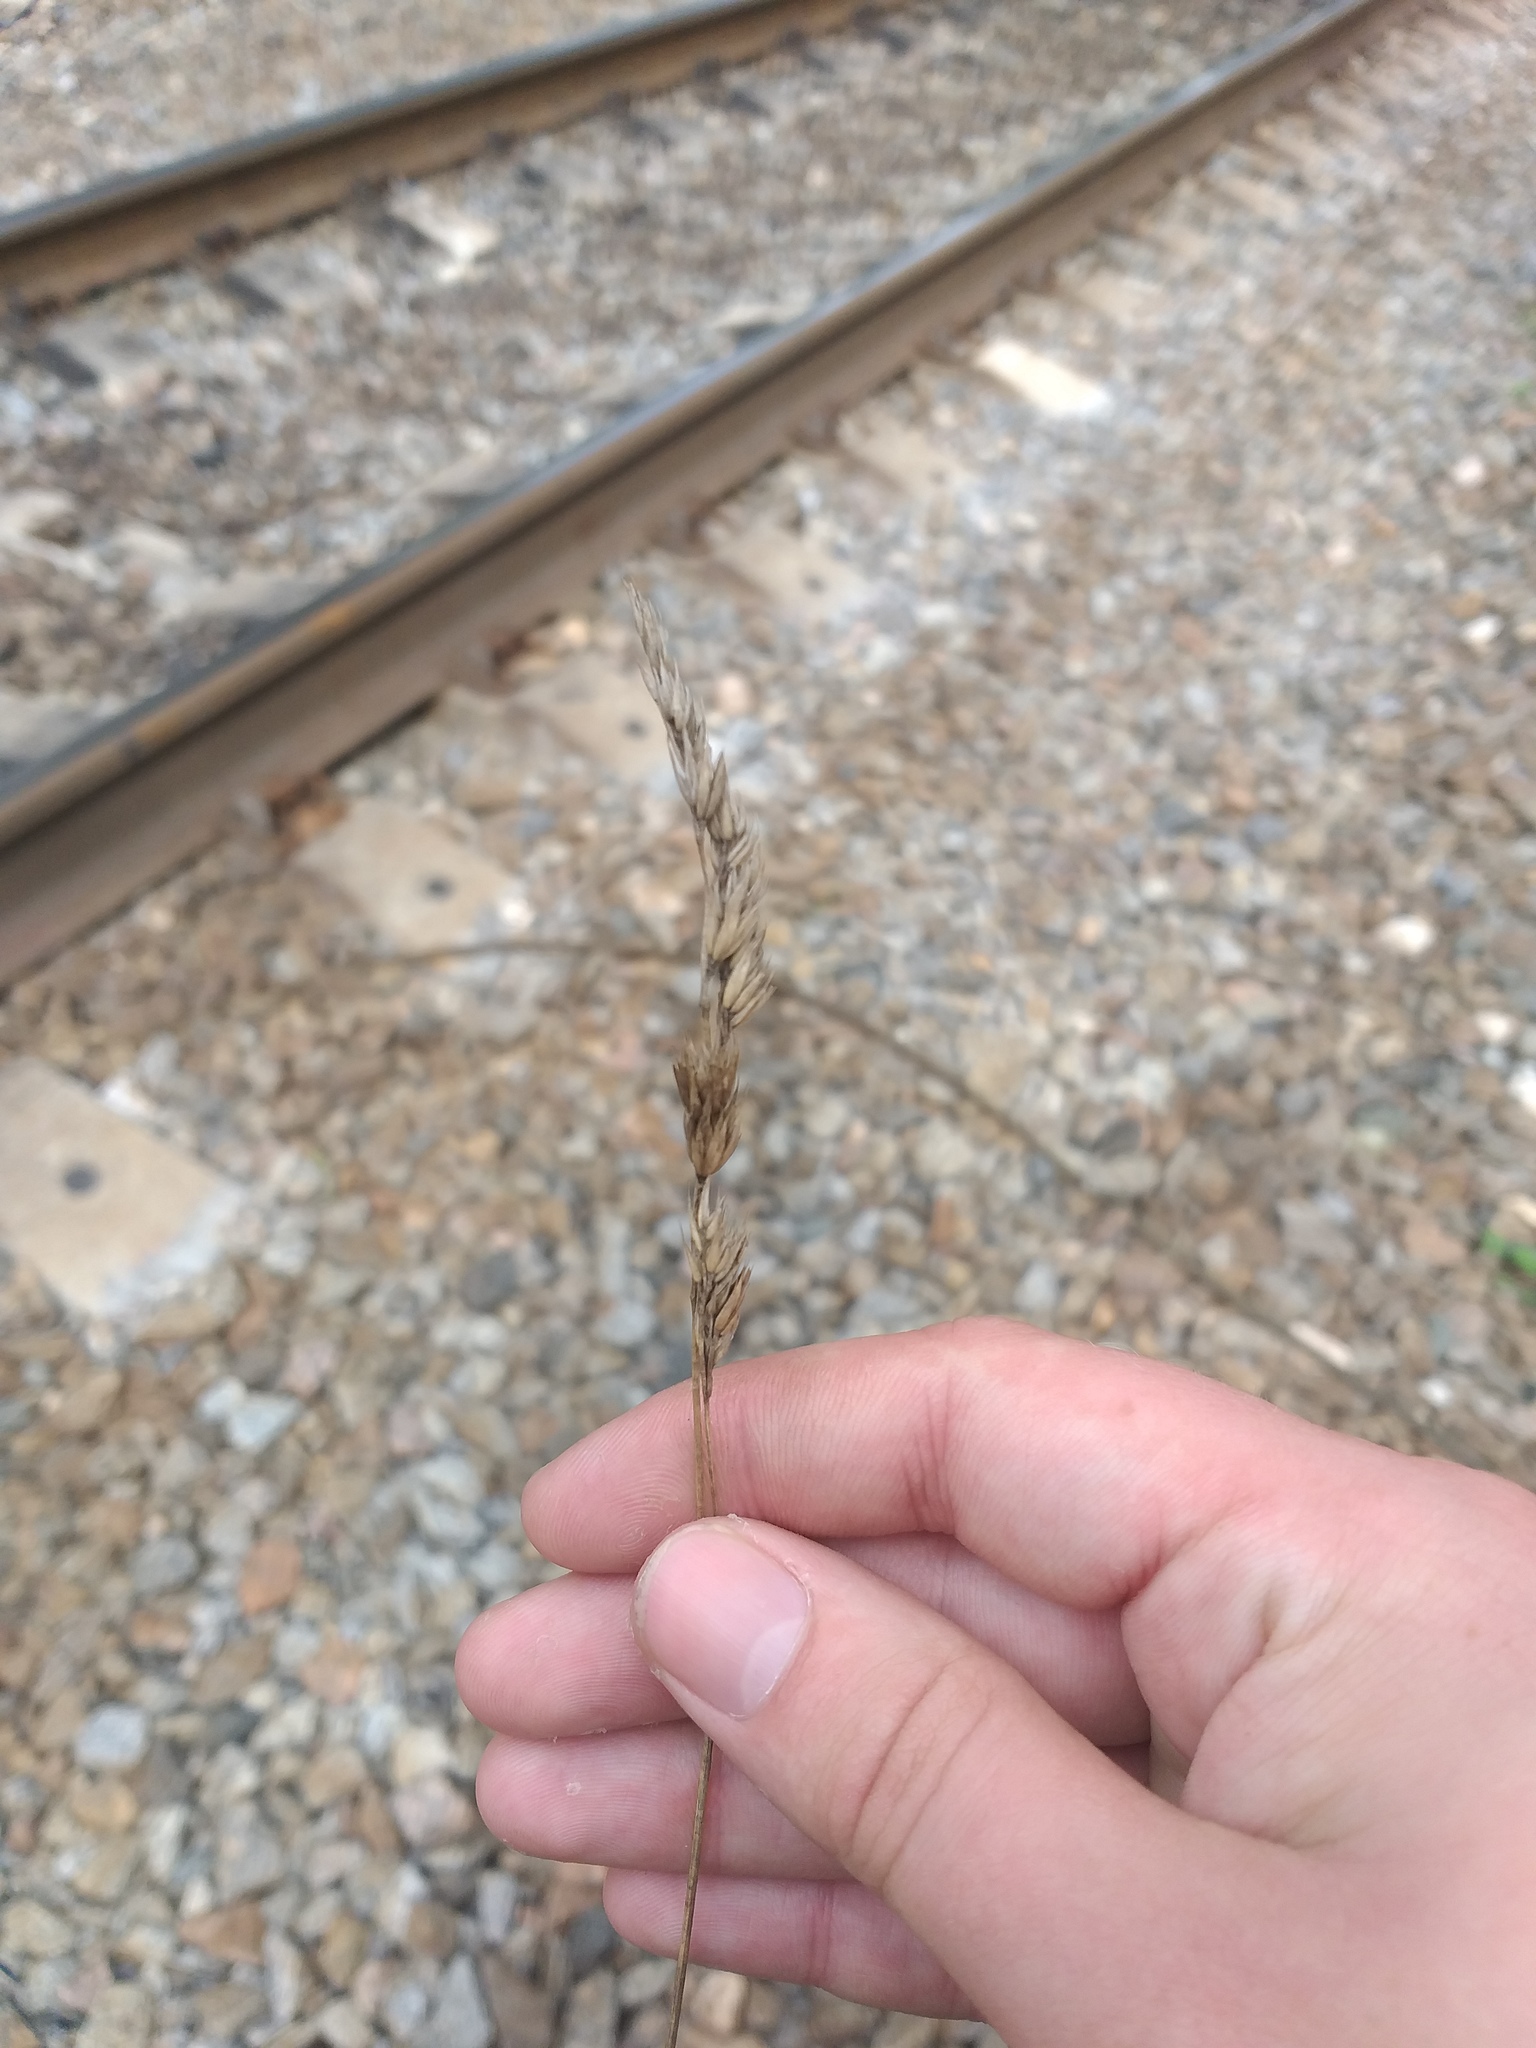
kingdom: Plantae
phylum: Tracheophyta
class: Liliopsida
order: Poales
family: Poaceae
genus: Dactylis
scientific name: Dactylis glomerata
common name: Orchardgrass
